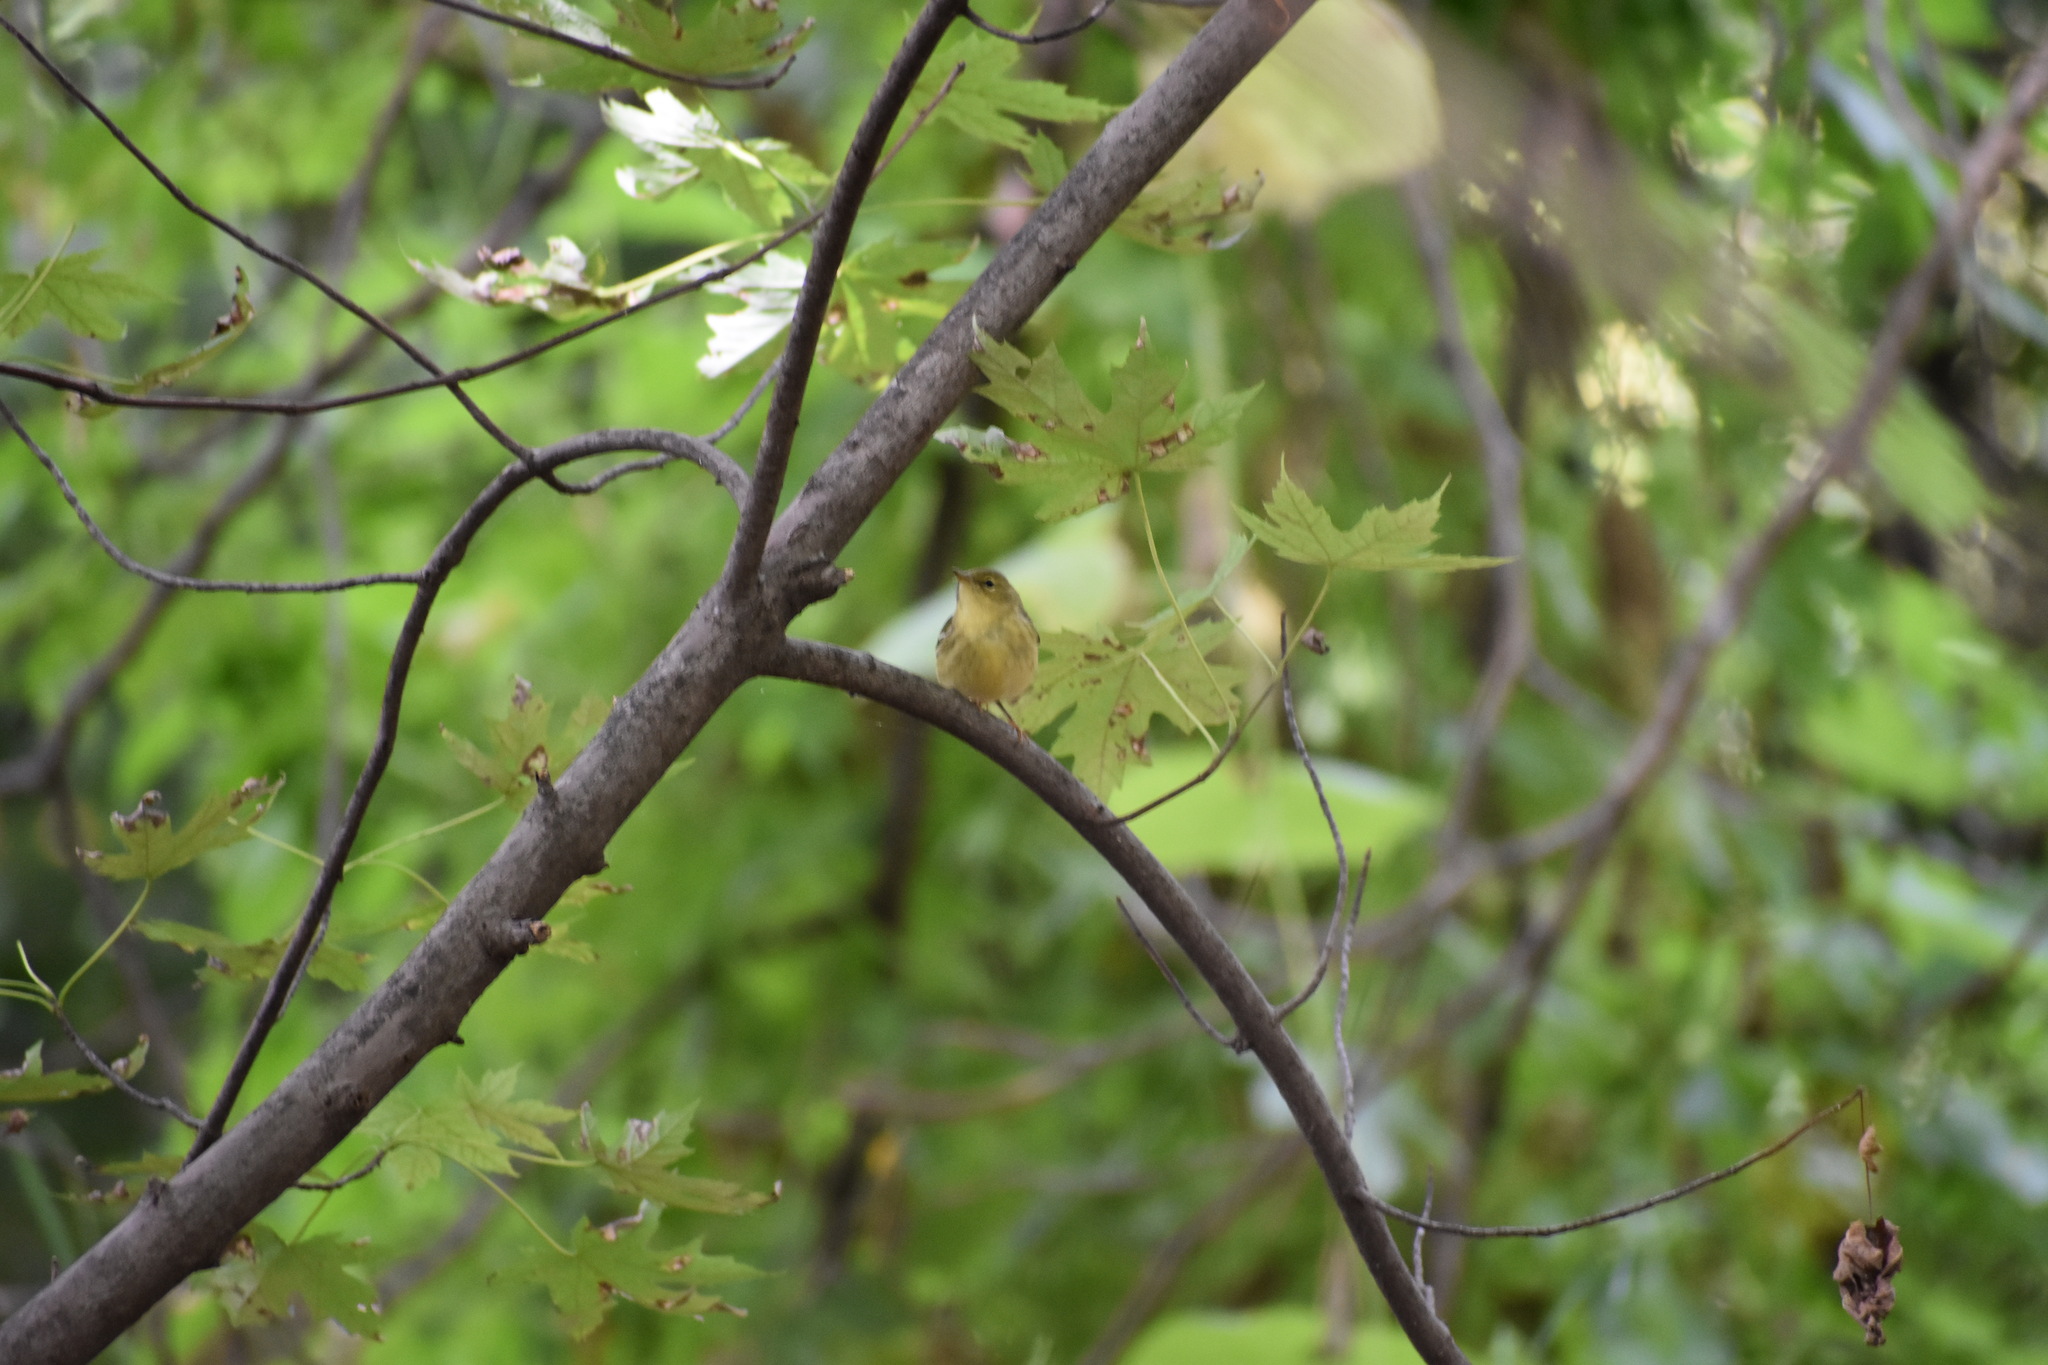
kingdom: Animalia
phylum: Chordata
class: Aves
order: Passeriformes
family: Parulidae
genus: Setophaga
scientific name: Setophaga striata
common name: Blackpoll warbler
